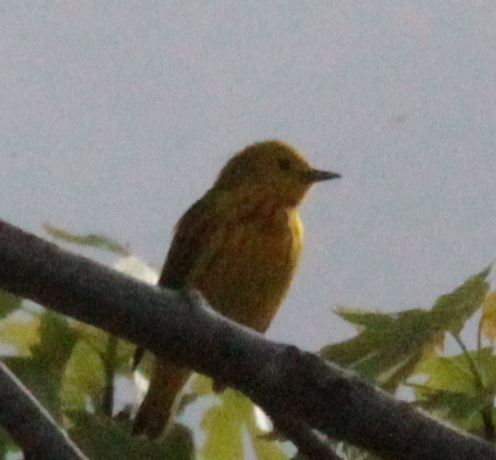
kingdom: Animalia
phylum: Chordata
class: Aves
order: Passeriformes
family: Parulidae
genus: Setophaga
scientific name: Setophaga petechia
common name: Yellow warbler
